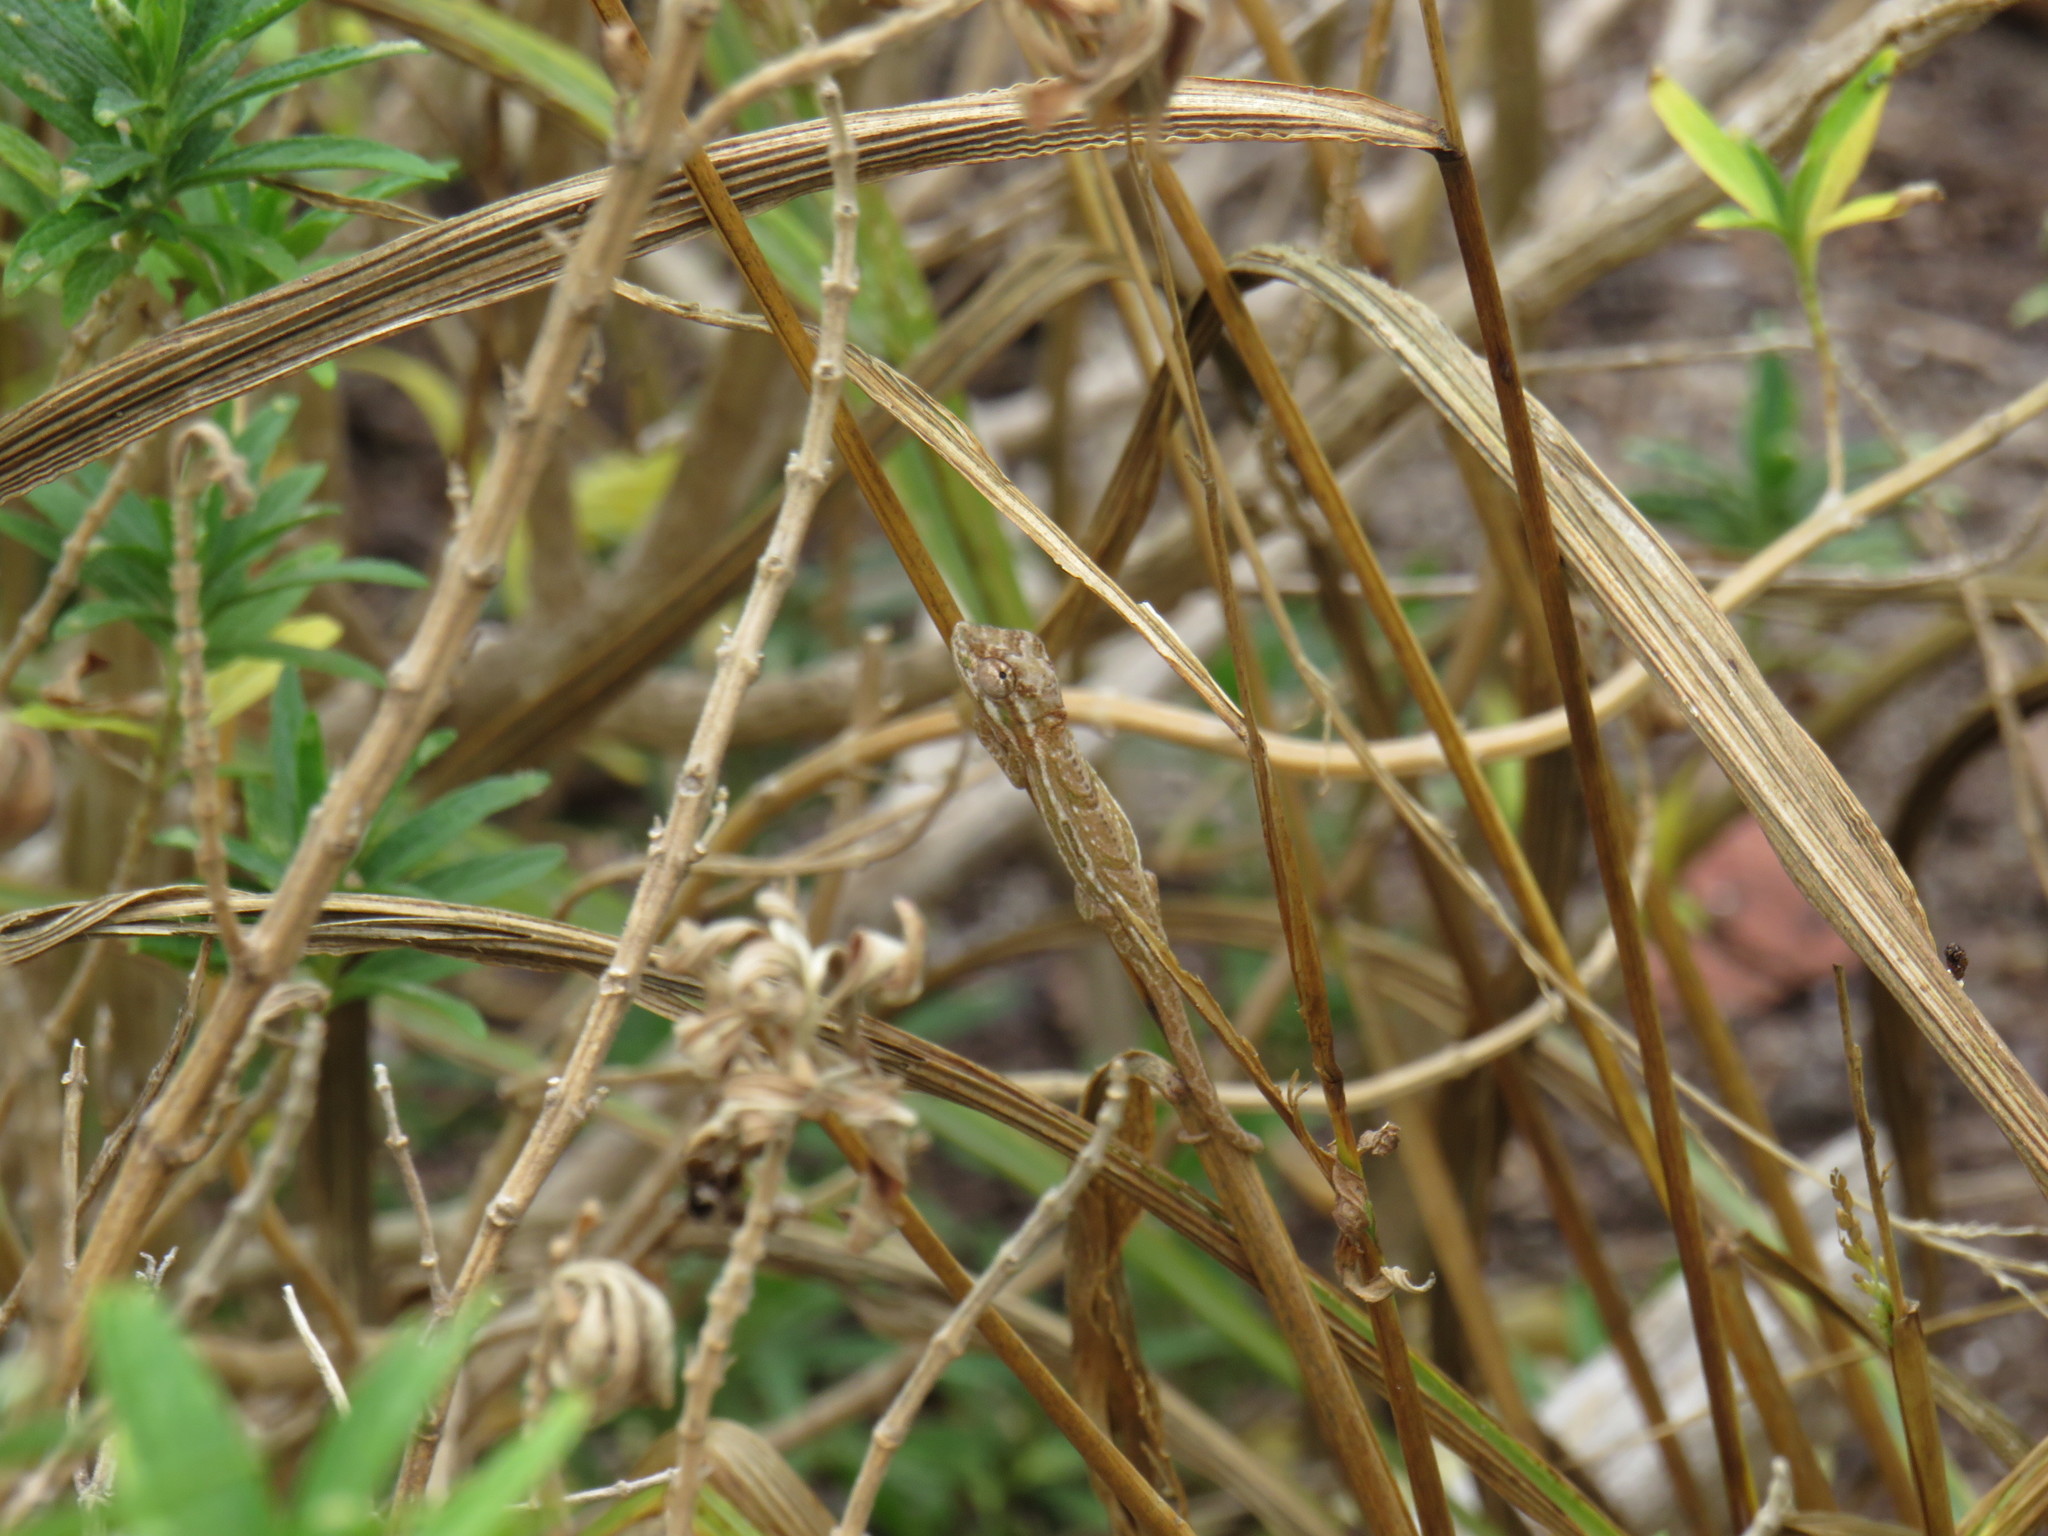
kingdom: Animalia
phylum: Chordata
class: Squamata
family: Chamaeleonidae
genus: Bradypodion
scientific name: Bradypodion pumilum
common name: Cape dwarf chameleon
